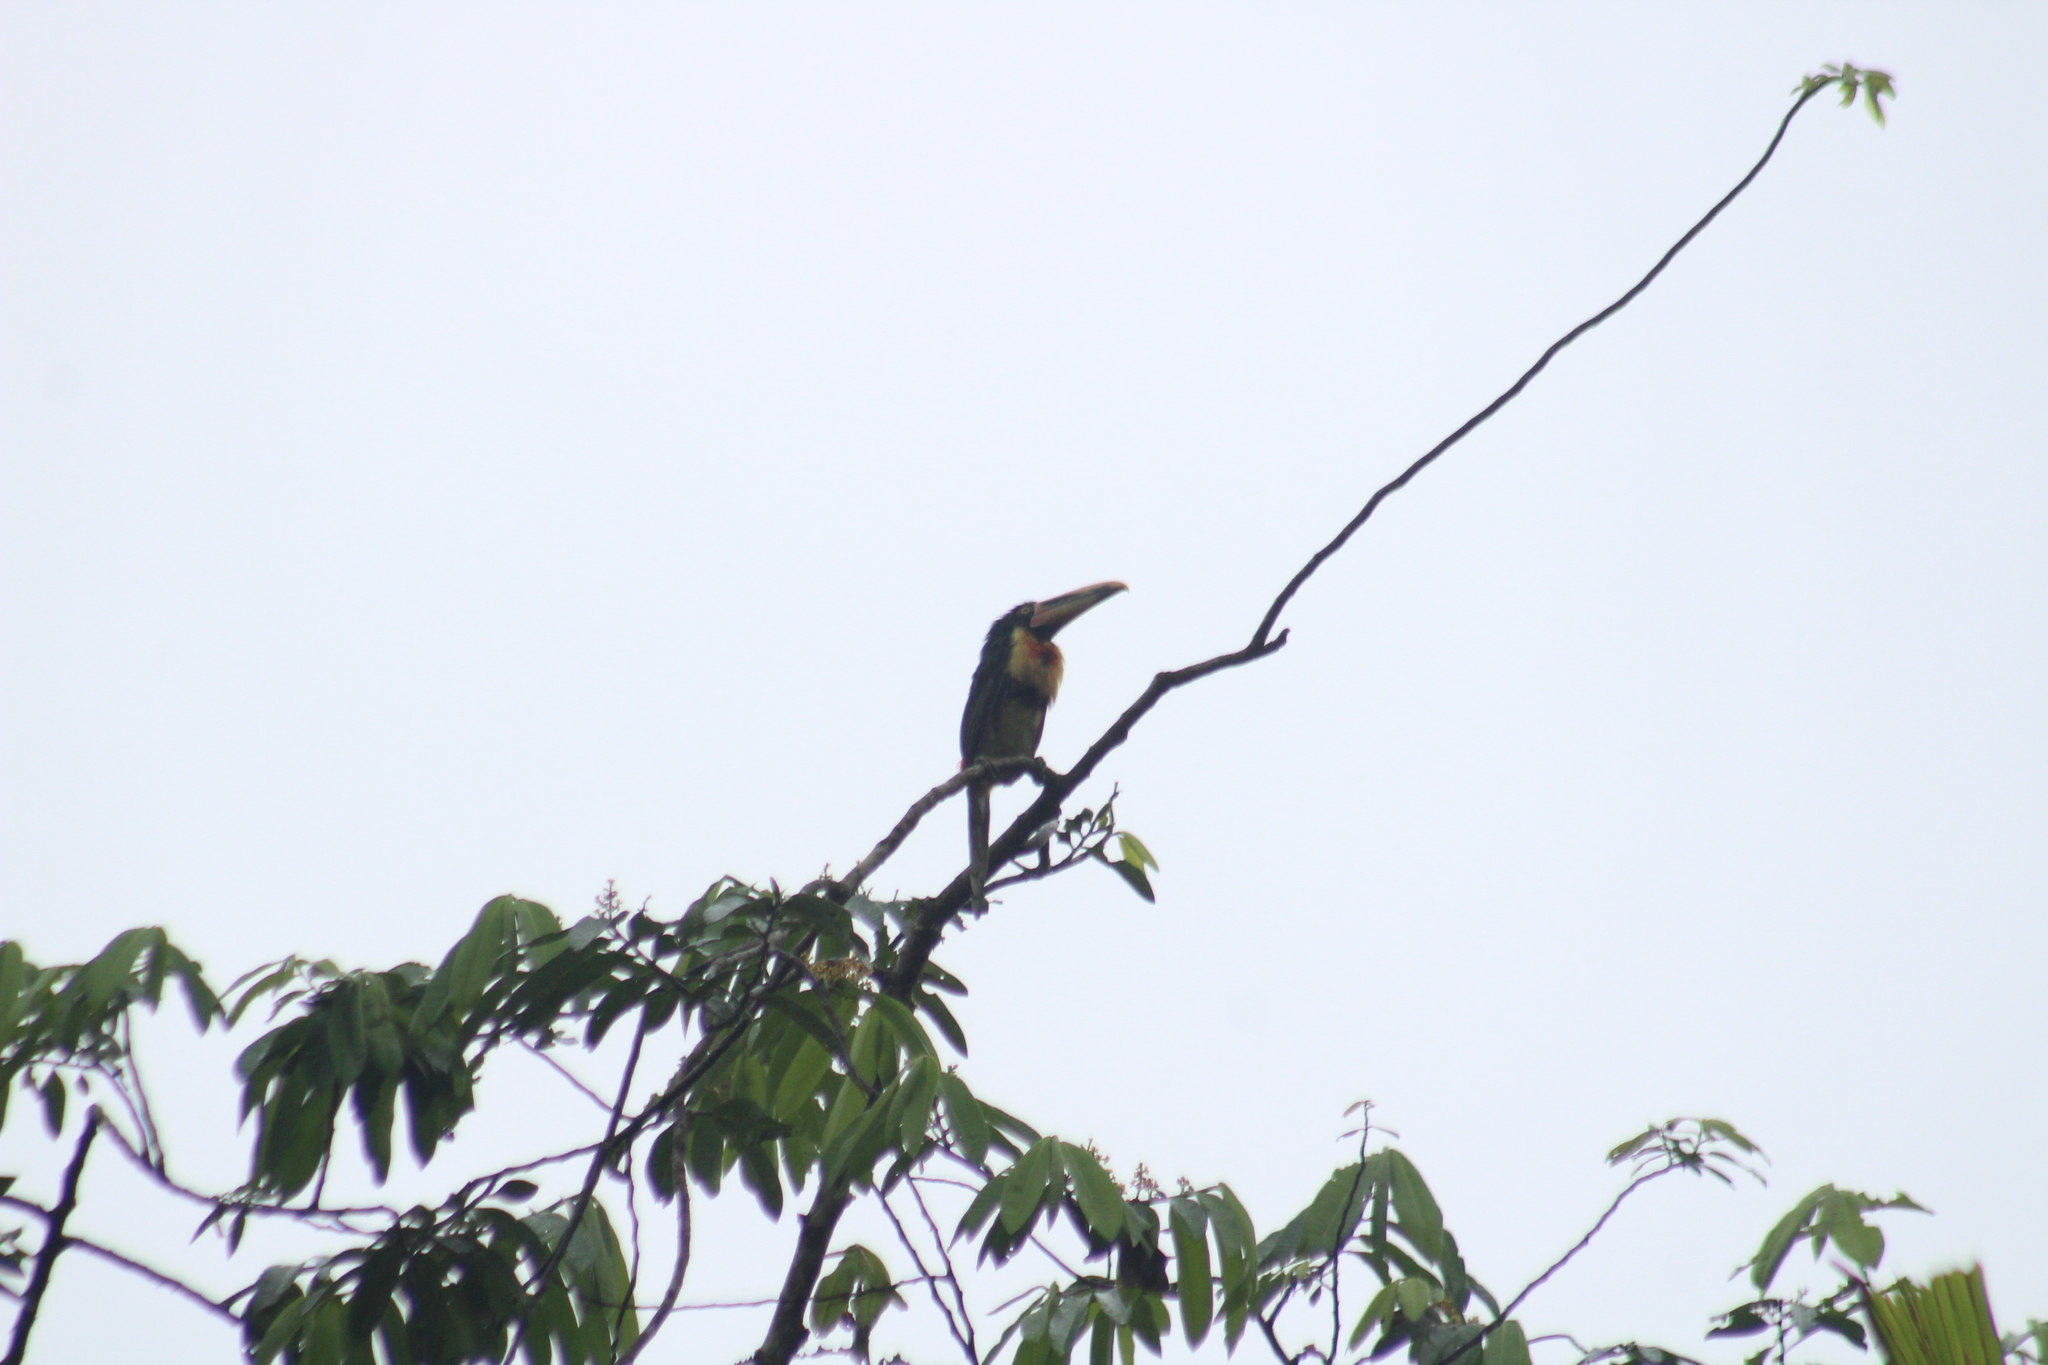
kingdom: Animalia
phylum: Chordata
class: Aves
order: Piciformes
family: Ramphastidae
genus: Pteroglossus
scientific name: Pteroglossus torquatus
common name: Collared aracari
